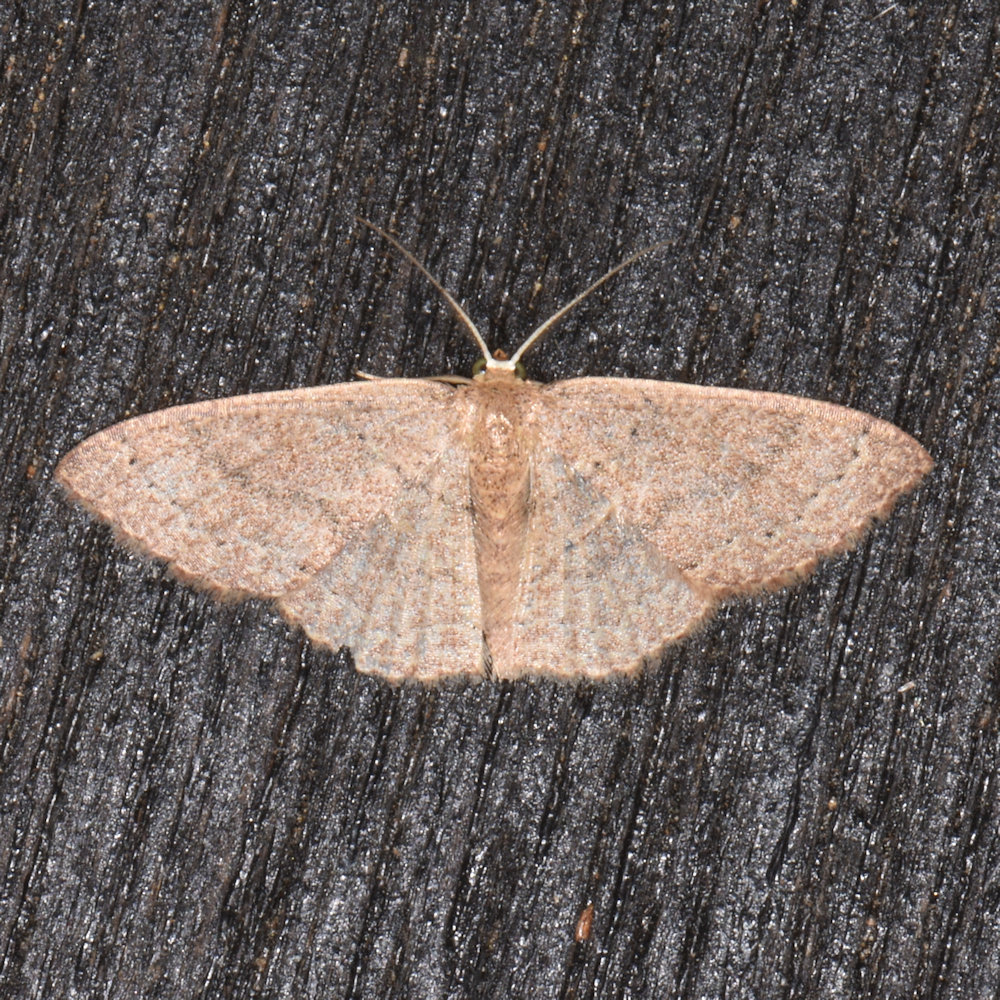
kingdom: Animalia
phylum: Arthropoda
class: Insecta
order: Lepidoptera
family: Geometridae
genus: Pleuroprucha
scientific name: Pleuroprucha insulsaria
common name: Common tan wave
